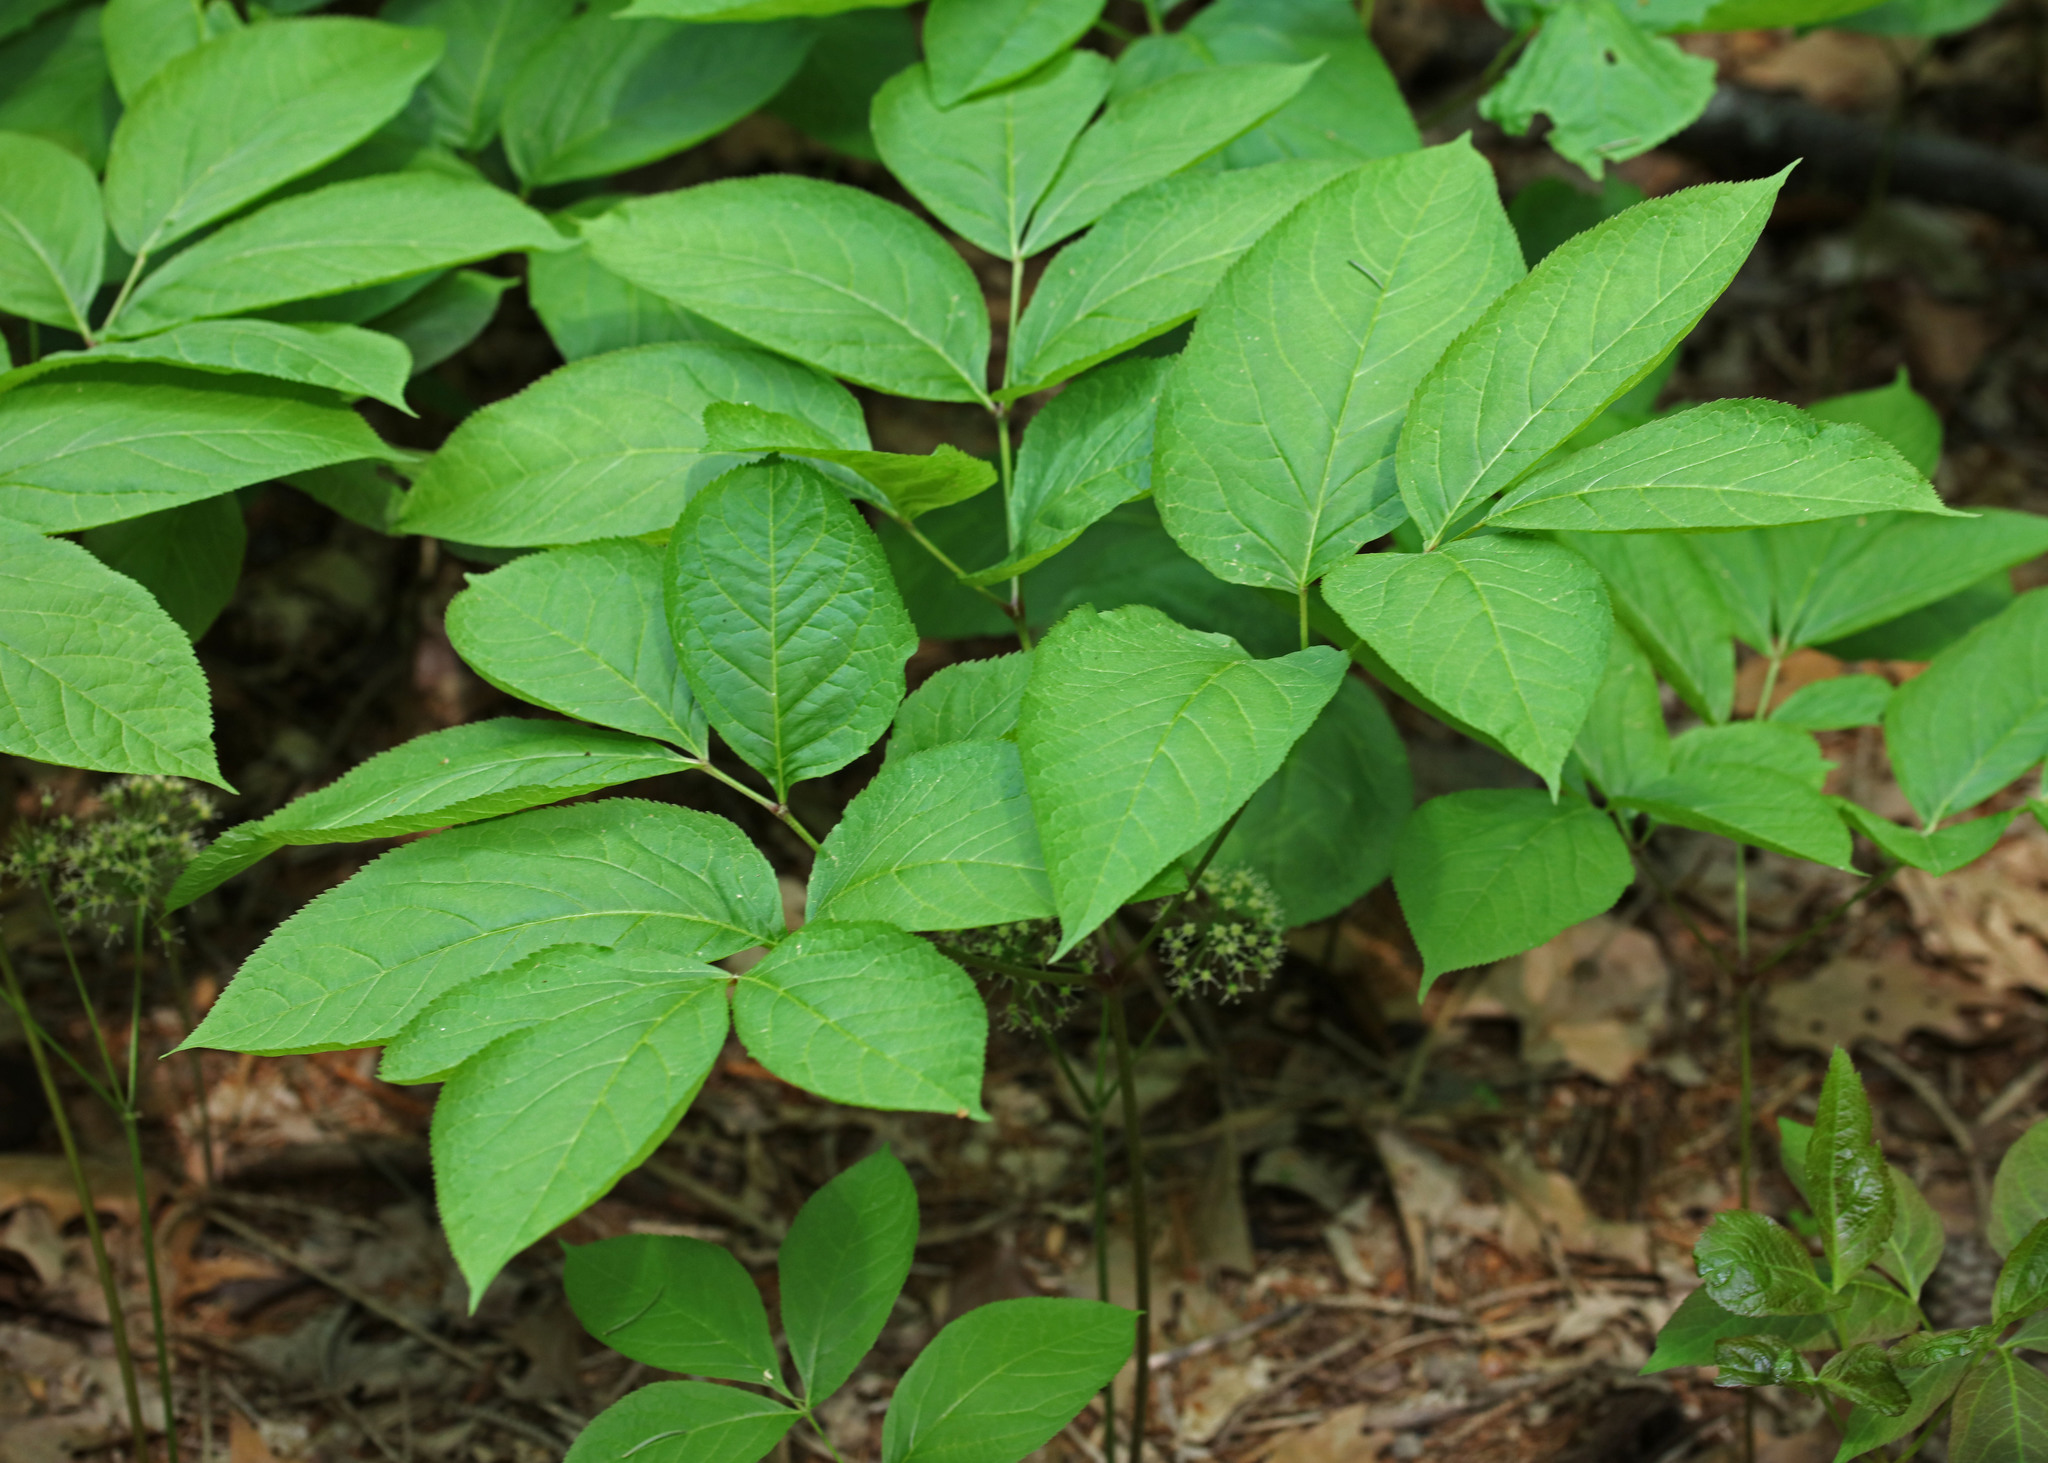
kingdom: Plantae
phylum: Tracheophyta
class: Magnoliopsida
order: Apiales
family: Araliaceae
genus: Aralia
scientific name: Aralia nudicaulis
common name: Wild sarsaparilla
